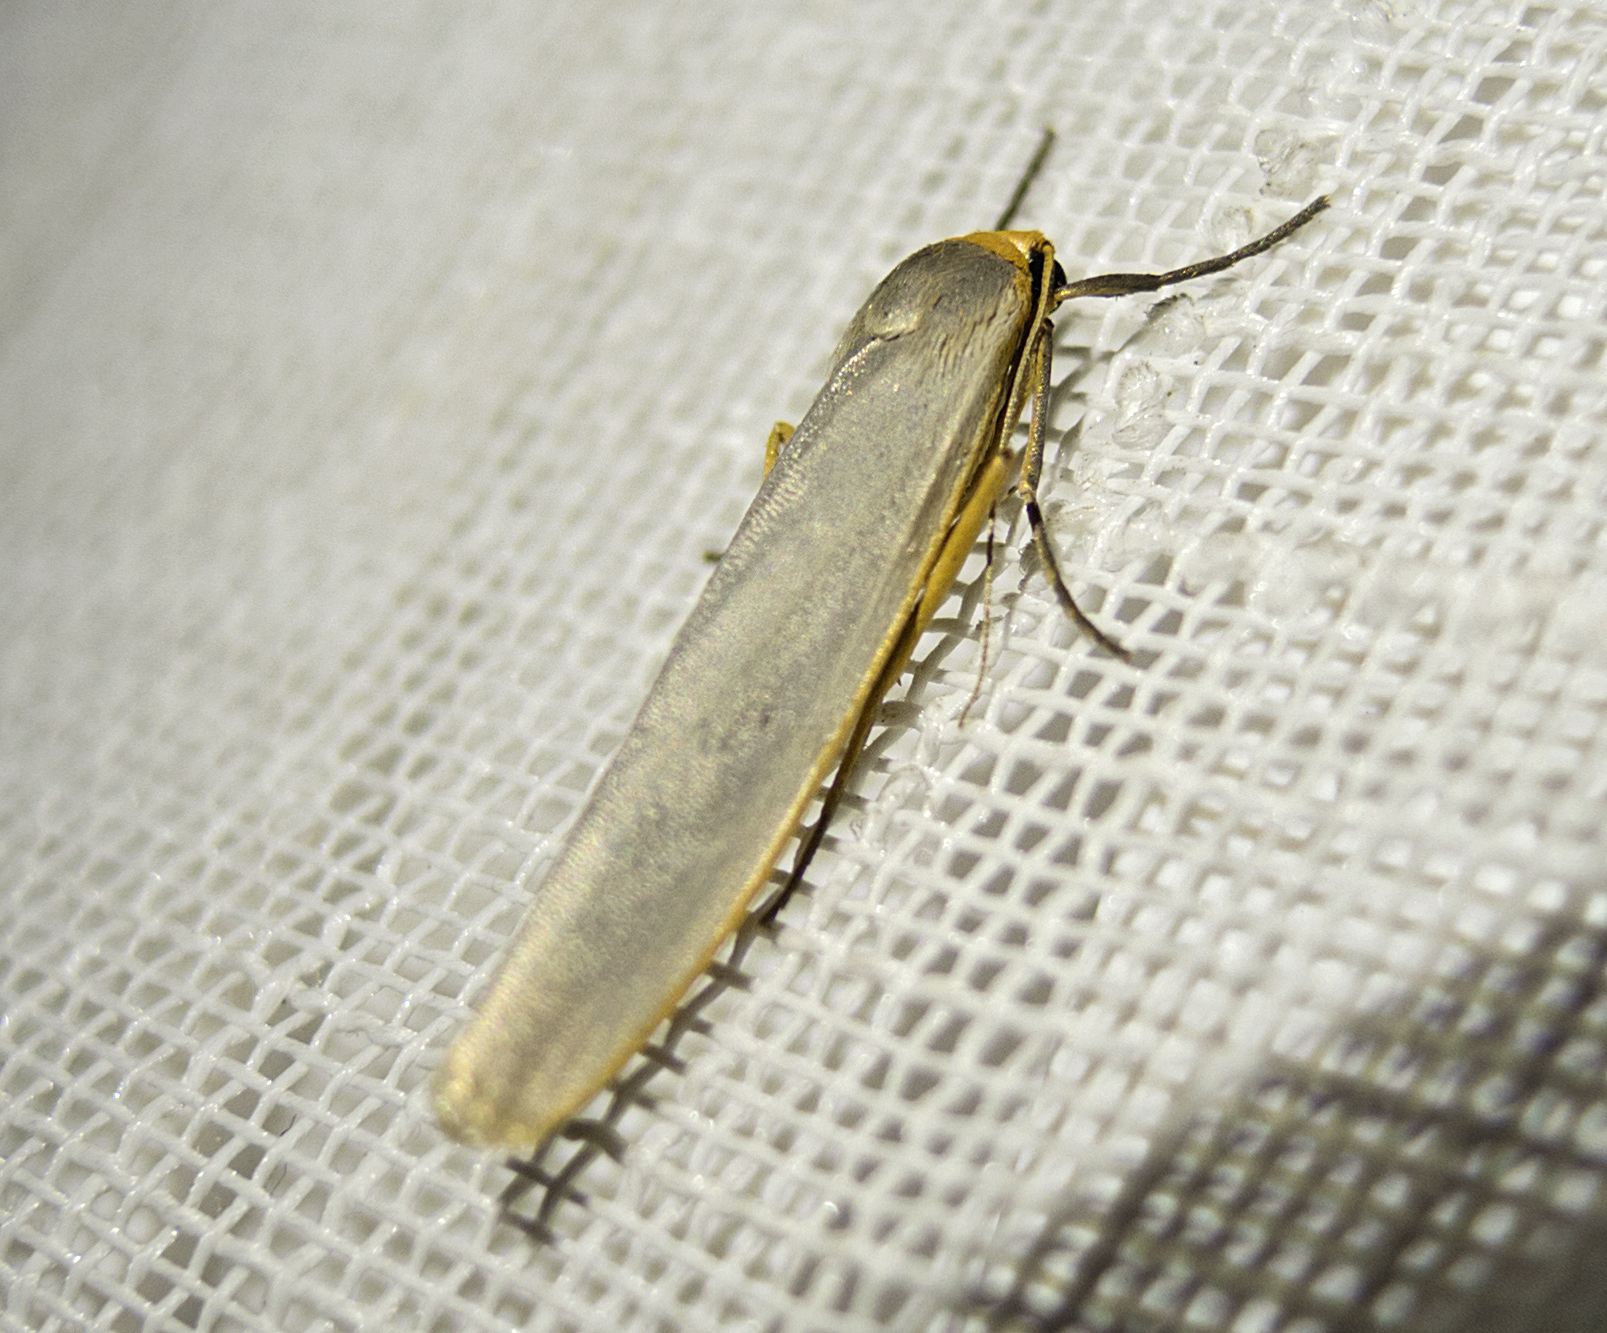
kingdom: Animalia
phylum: Arthropoda
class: Insecta
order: Lepidoptera
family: Erebidae
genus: Eilema
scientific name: Eilema caniola
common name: Hoary footman
